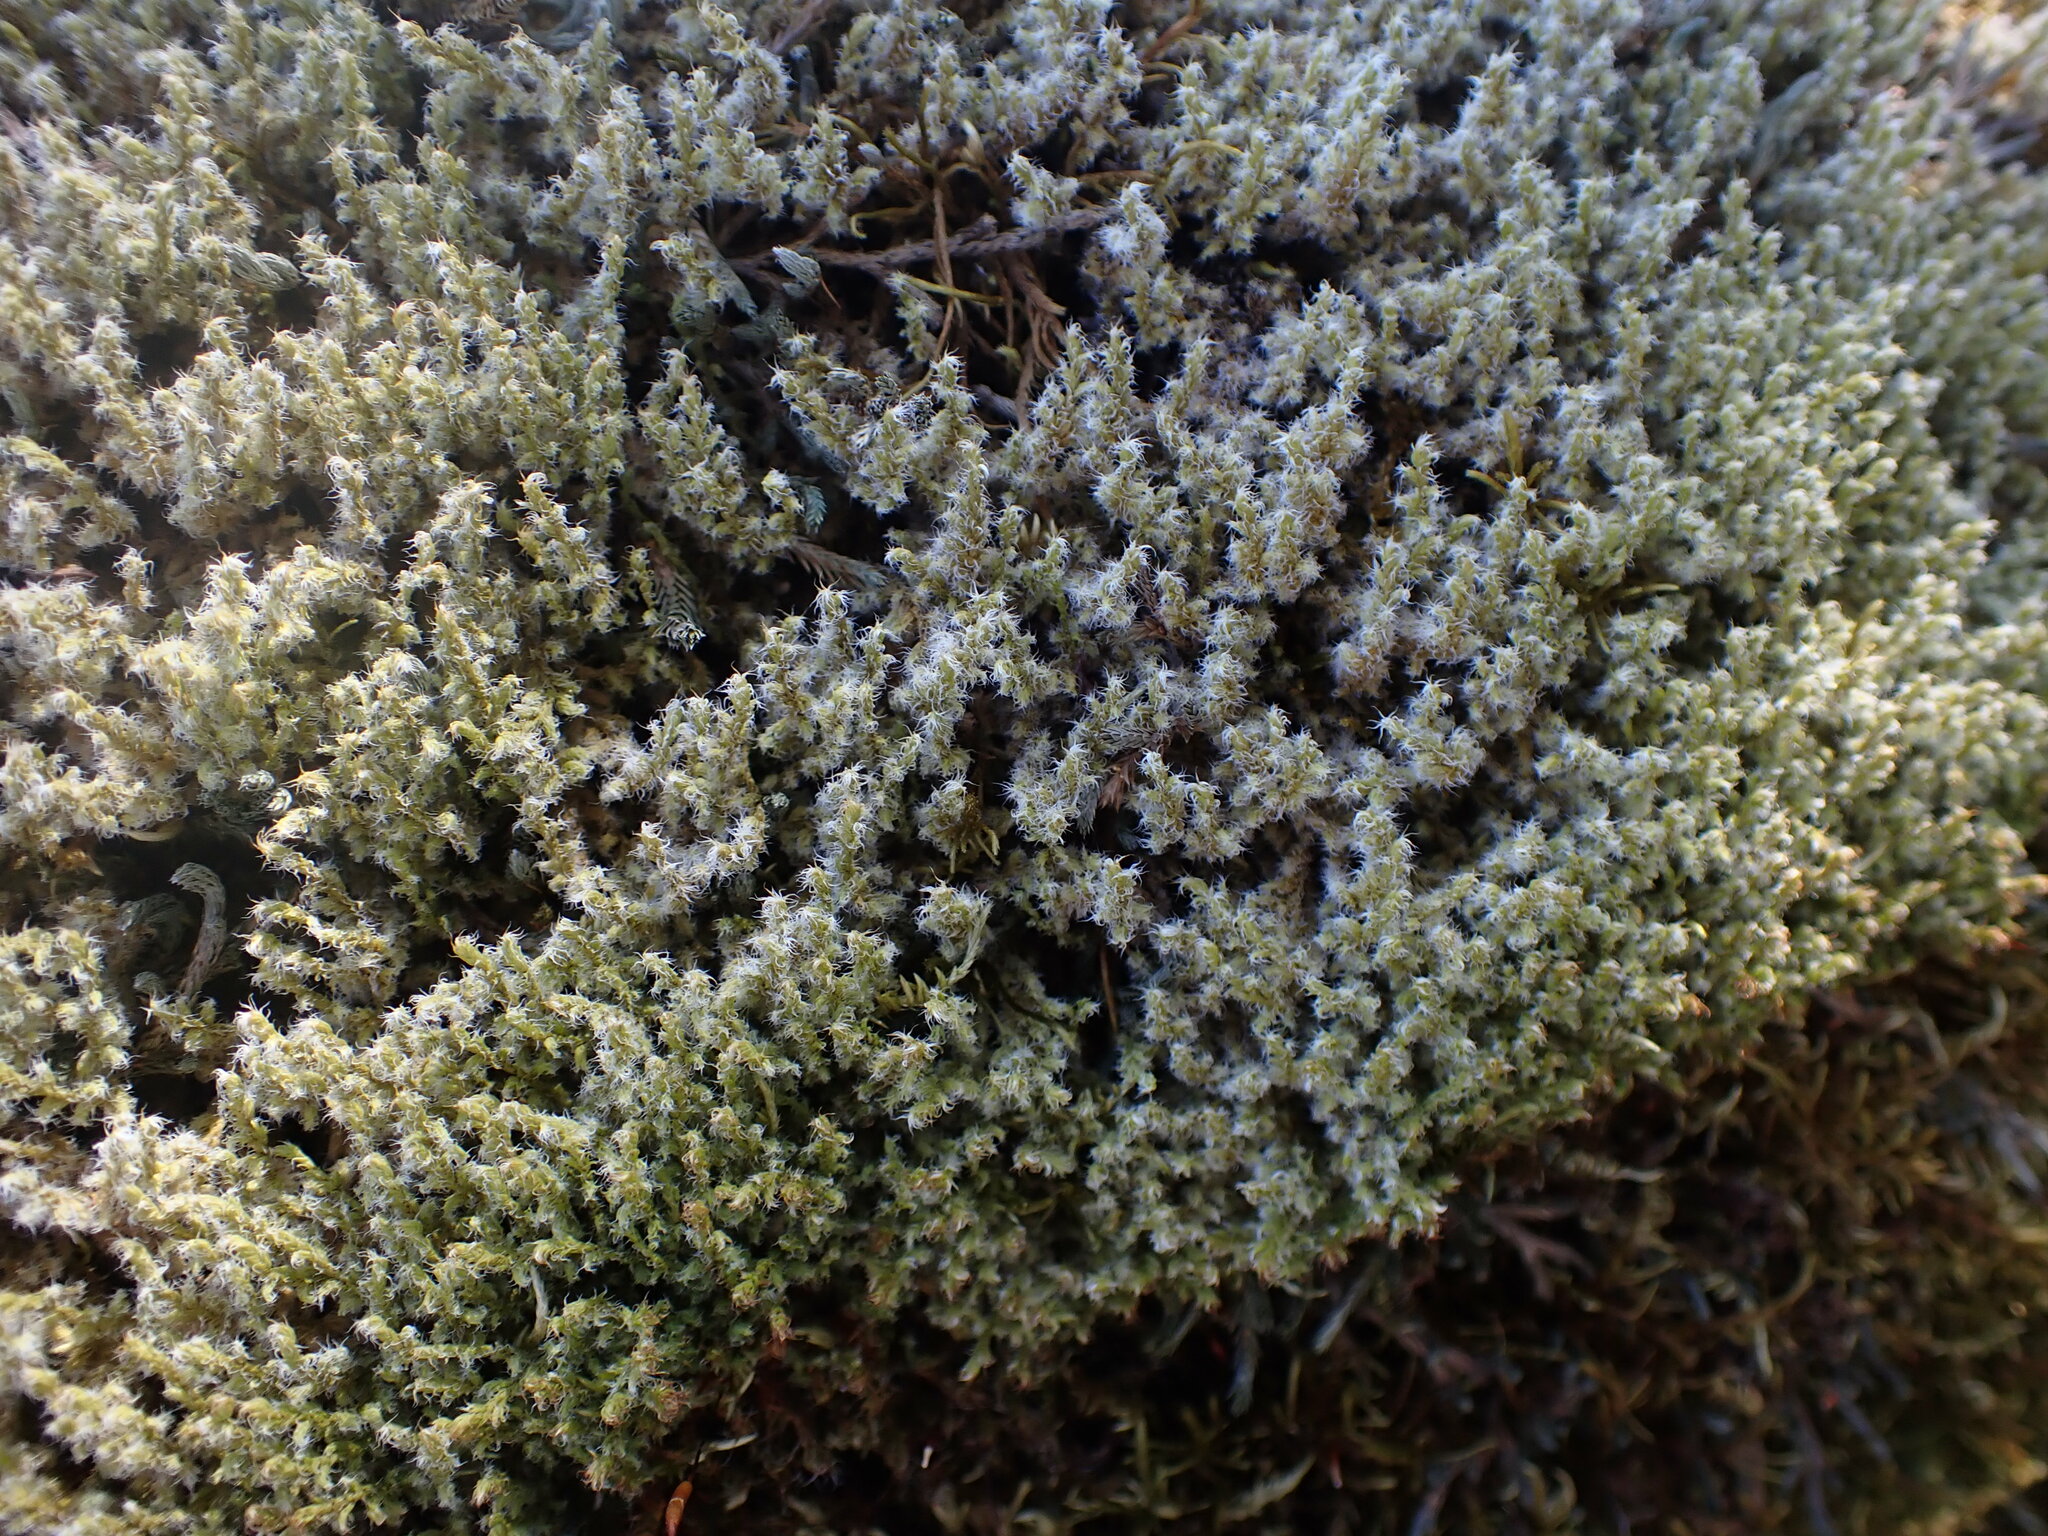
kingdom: Plantae
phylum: Bryophyta
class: Bryopsida
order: Grimmiales
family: Grimmiaceae
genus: Niphotrichum
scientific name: Niphotrichum elongatum
